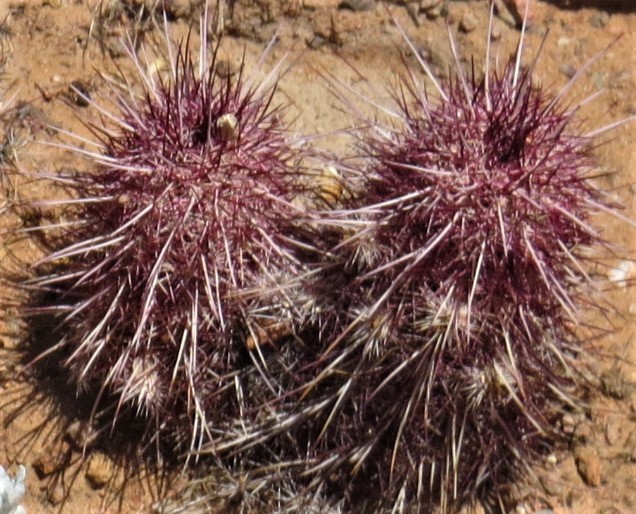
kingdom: Plantae
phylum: Tracheophyta
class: Magnoliopsida
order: Caryophyllales
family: Cactaceae
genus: Echinocereus
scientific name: Echinocereus viridiflorus
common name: Nylon hedgehog cactus
